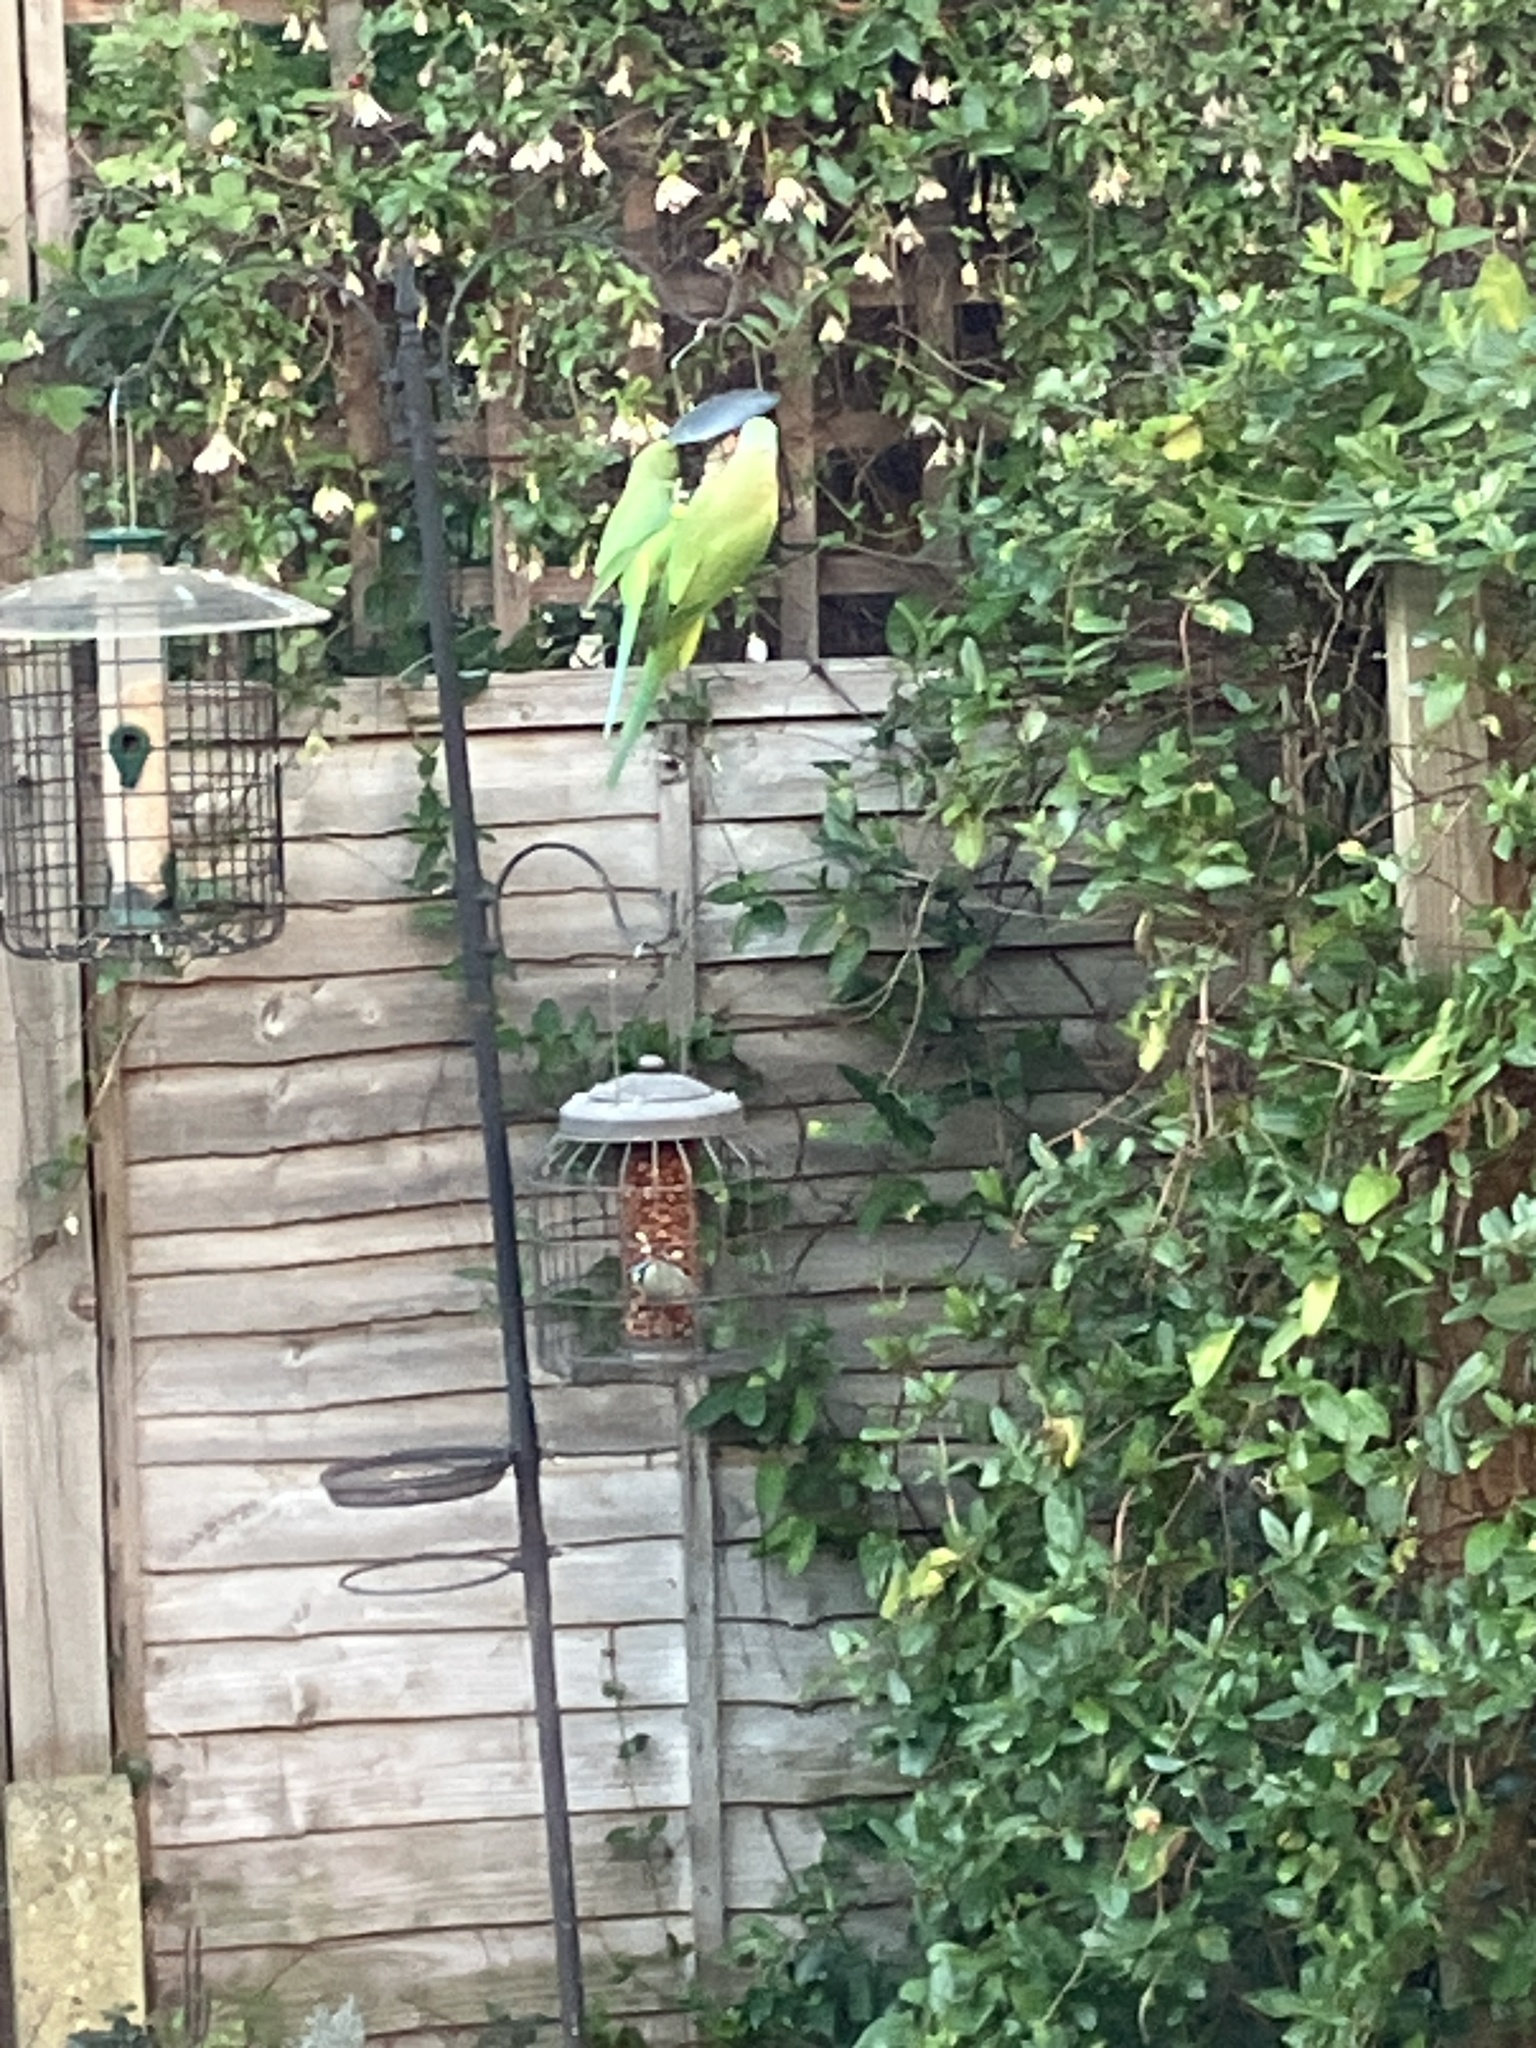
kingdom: Animalia
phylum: Chordata
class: Aves
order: Psittaciformes
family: Psittacidae
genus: Psittacula
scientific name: Psittacula krameri
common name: Rose-ringed parakeet
